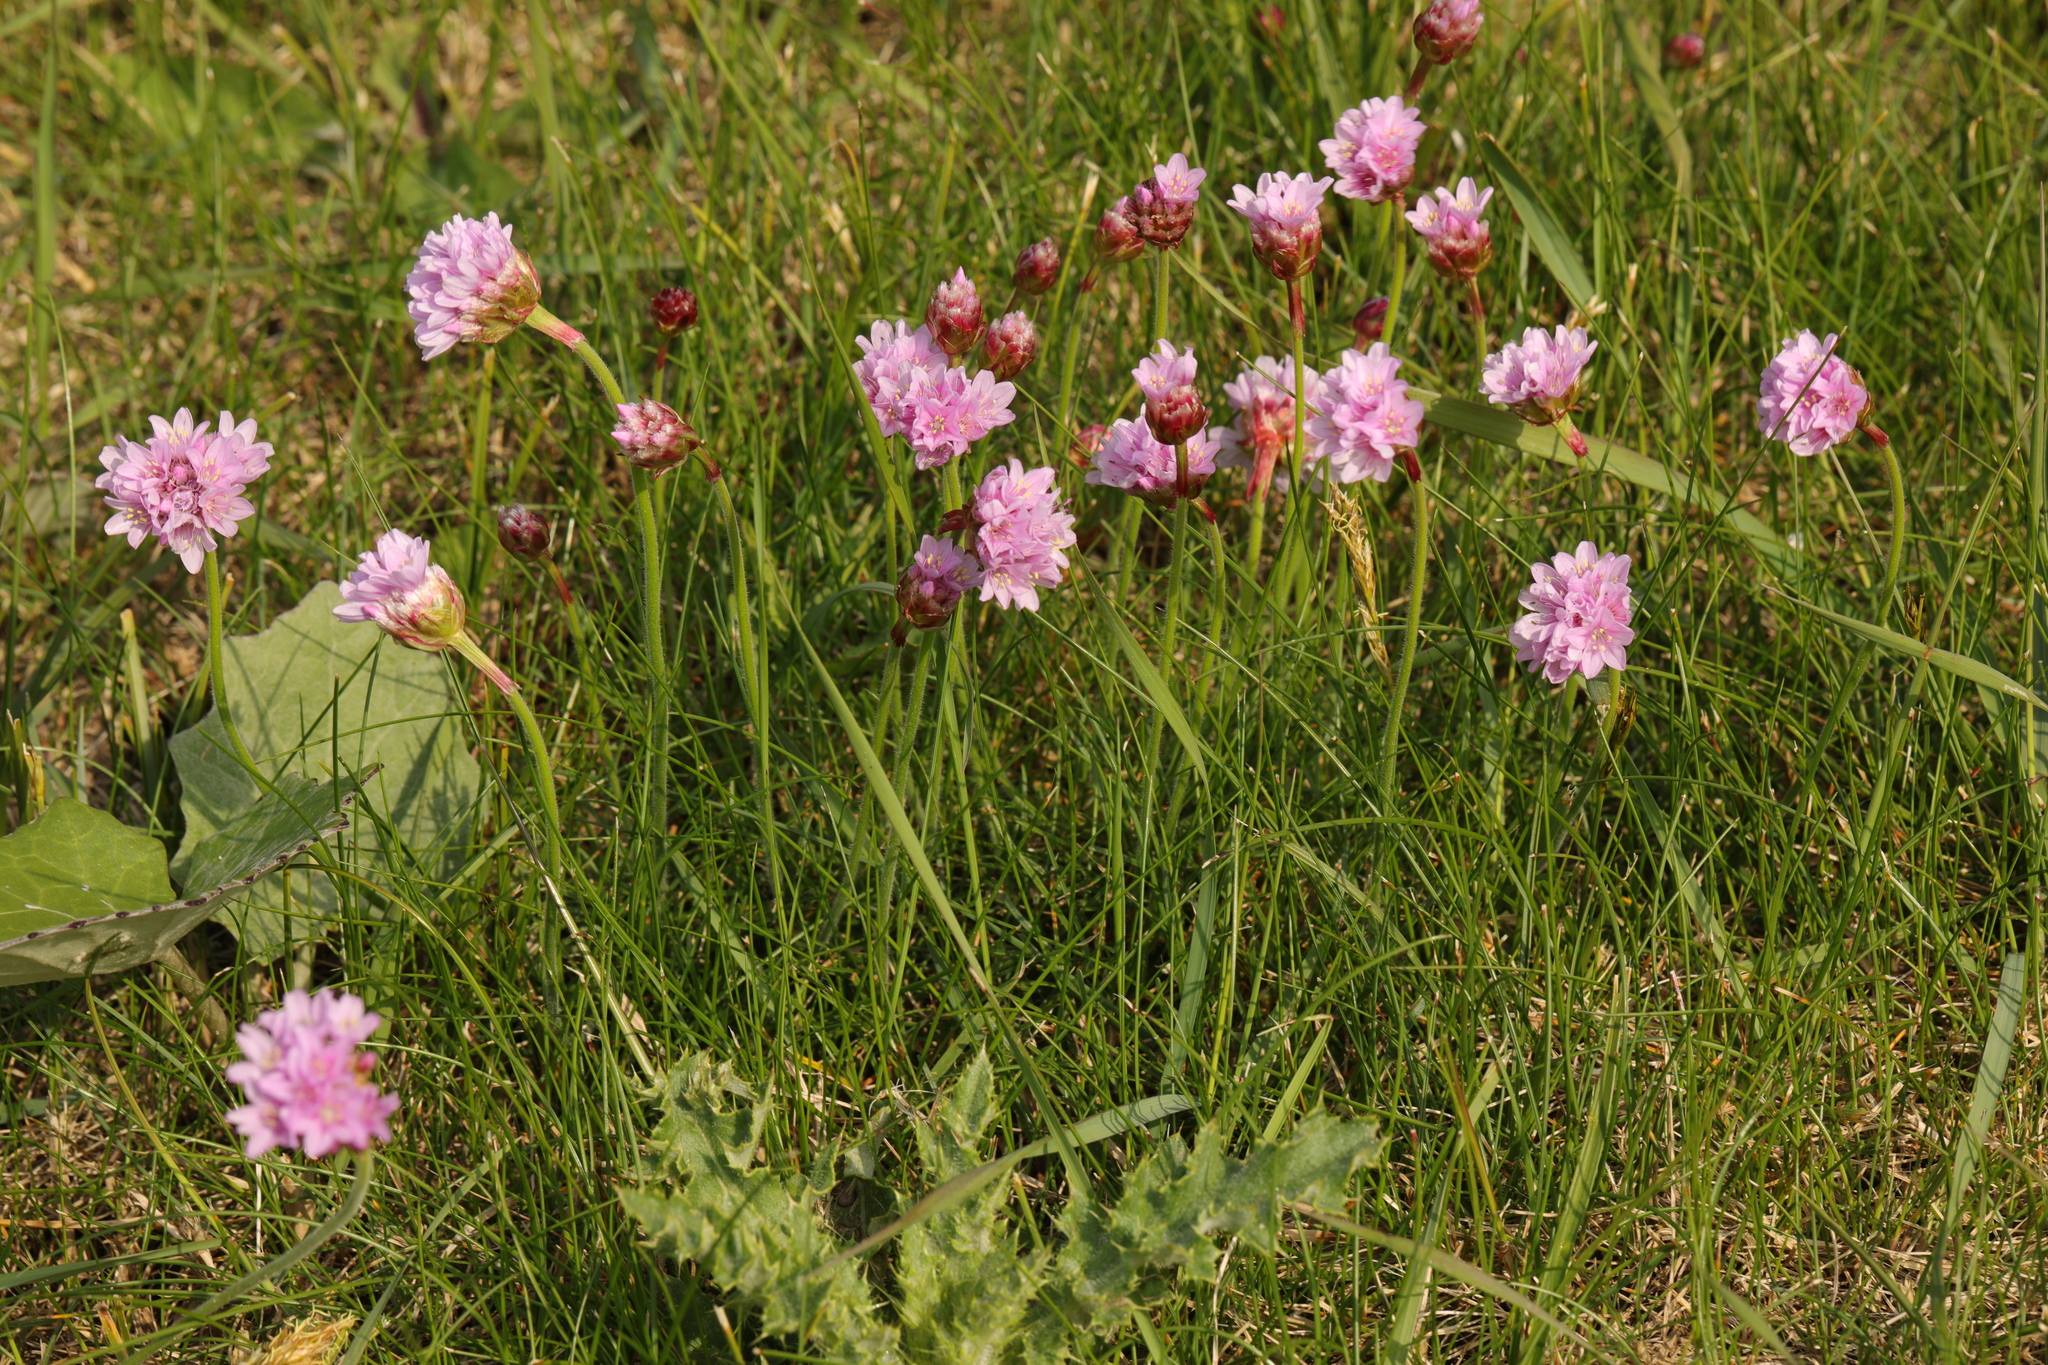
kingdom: Plantae
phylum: Tracheophyta
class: Magnoliopsida
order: Caryophyllales
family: Plumbaginaceae
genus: Armeria
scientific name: Armeria maritima
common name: Thrift
